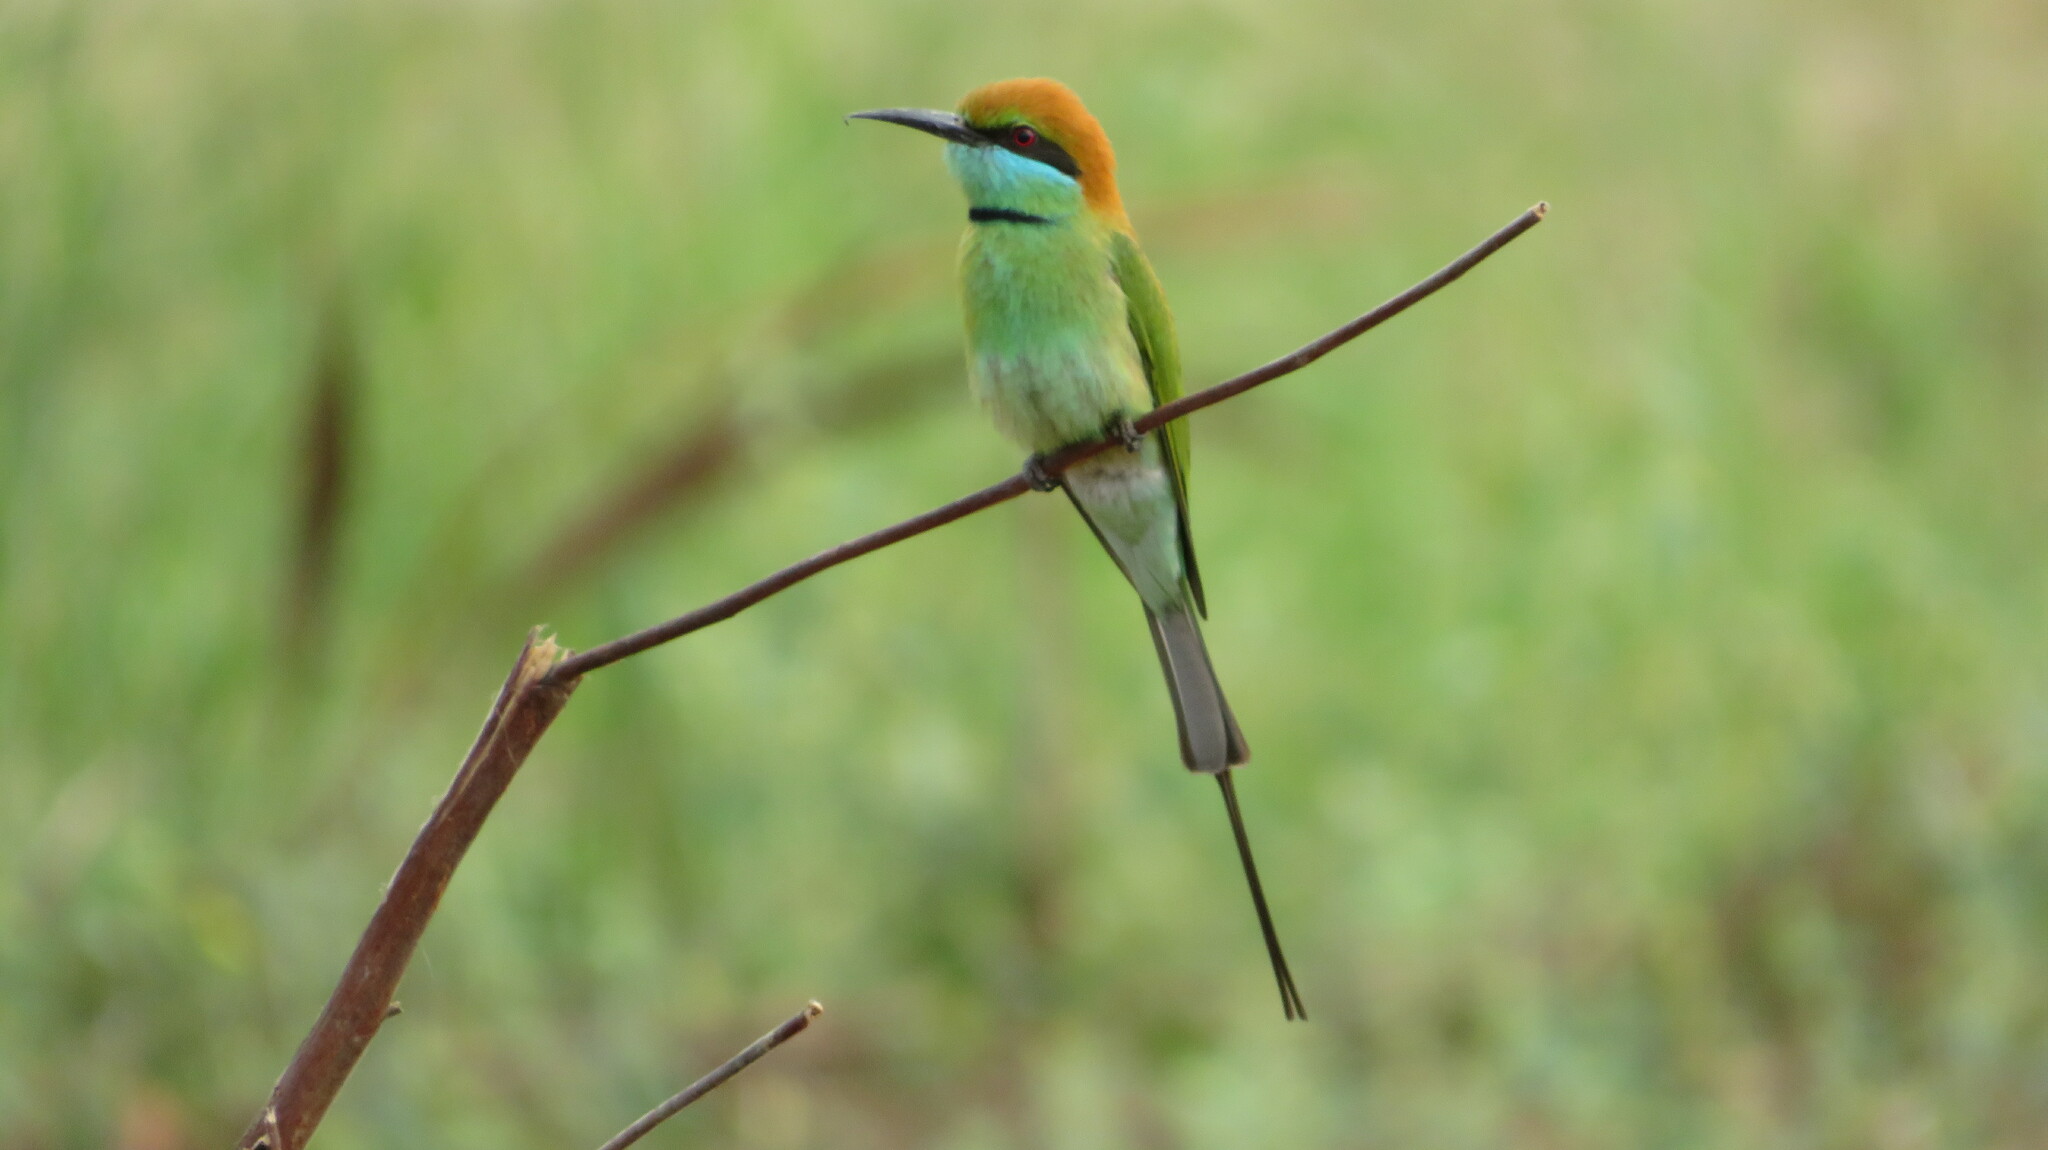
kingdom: Animalia
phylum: Chordata
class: Aves
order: Coraciiformes
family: Meropidae
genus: Merops
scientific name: Merops orientalis
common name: Green bee-eater
